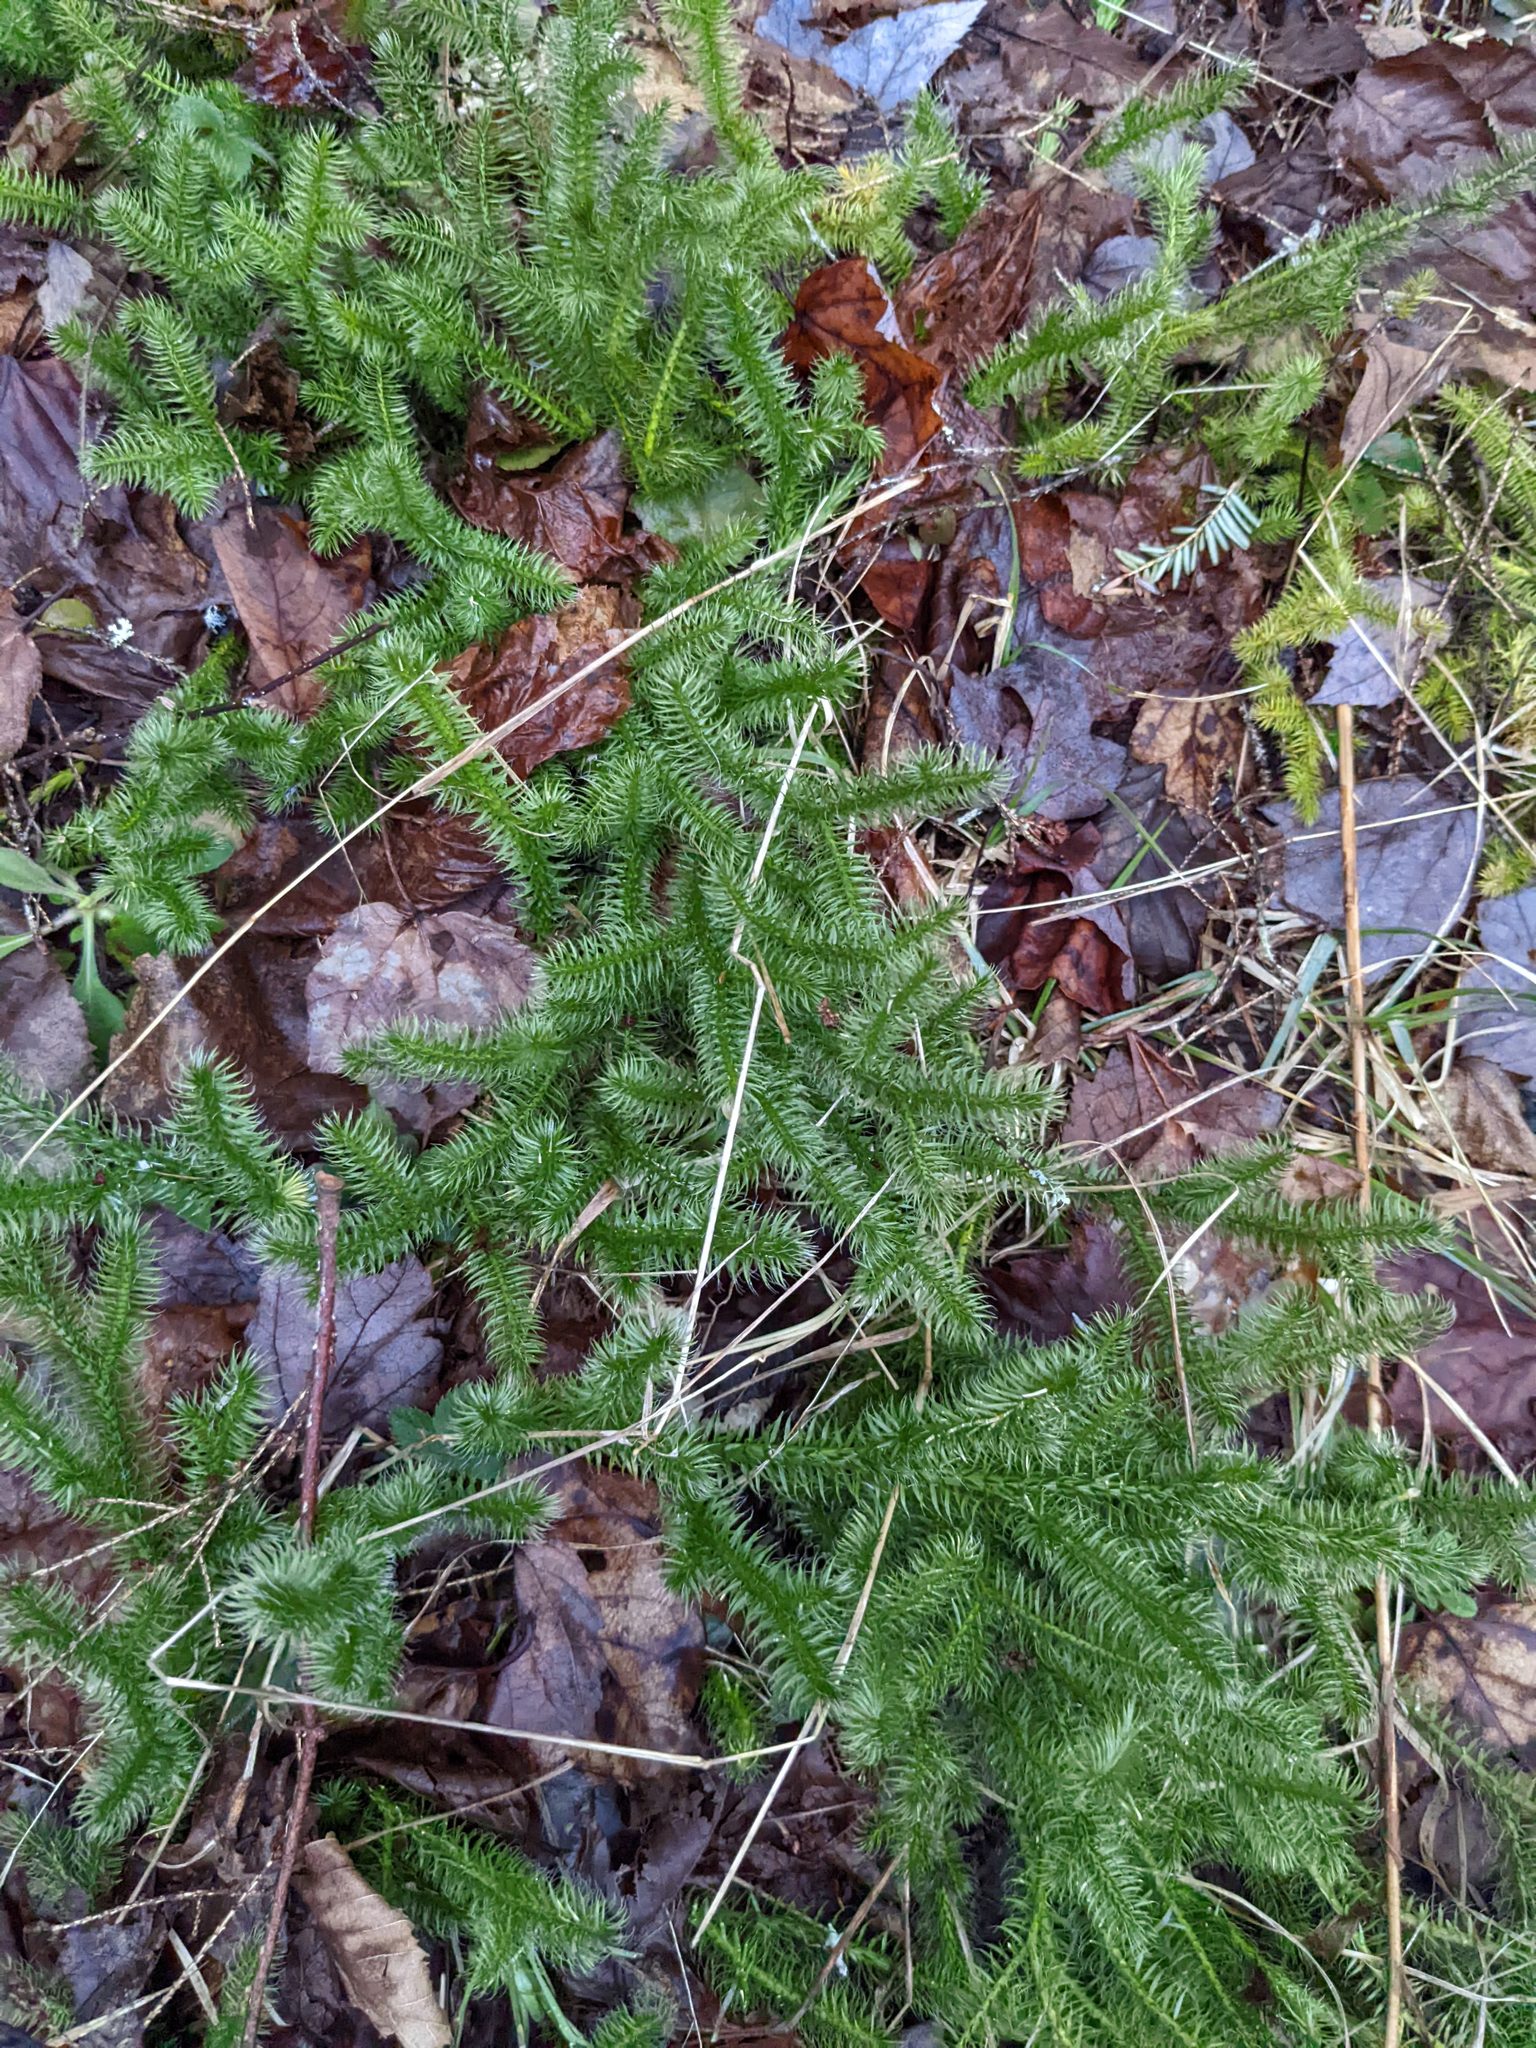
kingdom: Plantae
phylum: Tracheophyta
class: Lycopodiopsida
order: Lycopodiales
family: Lycopodiaceae
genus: Lycopodium
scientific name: Lycopodium clavatum
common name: Stag's-horn clubmoss
